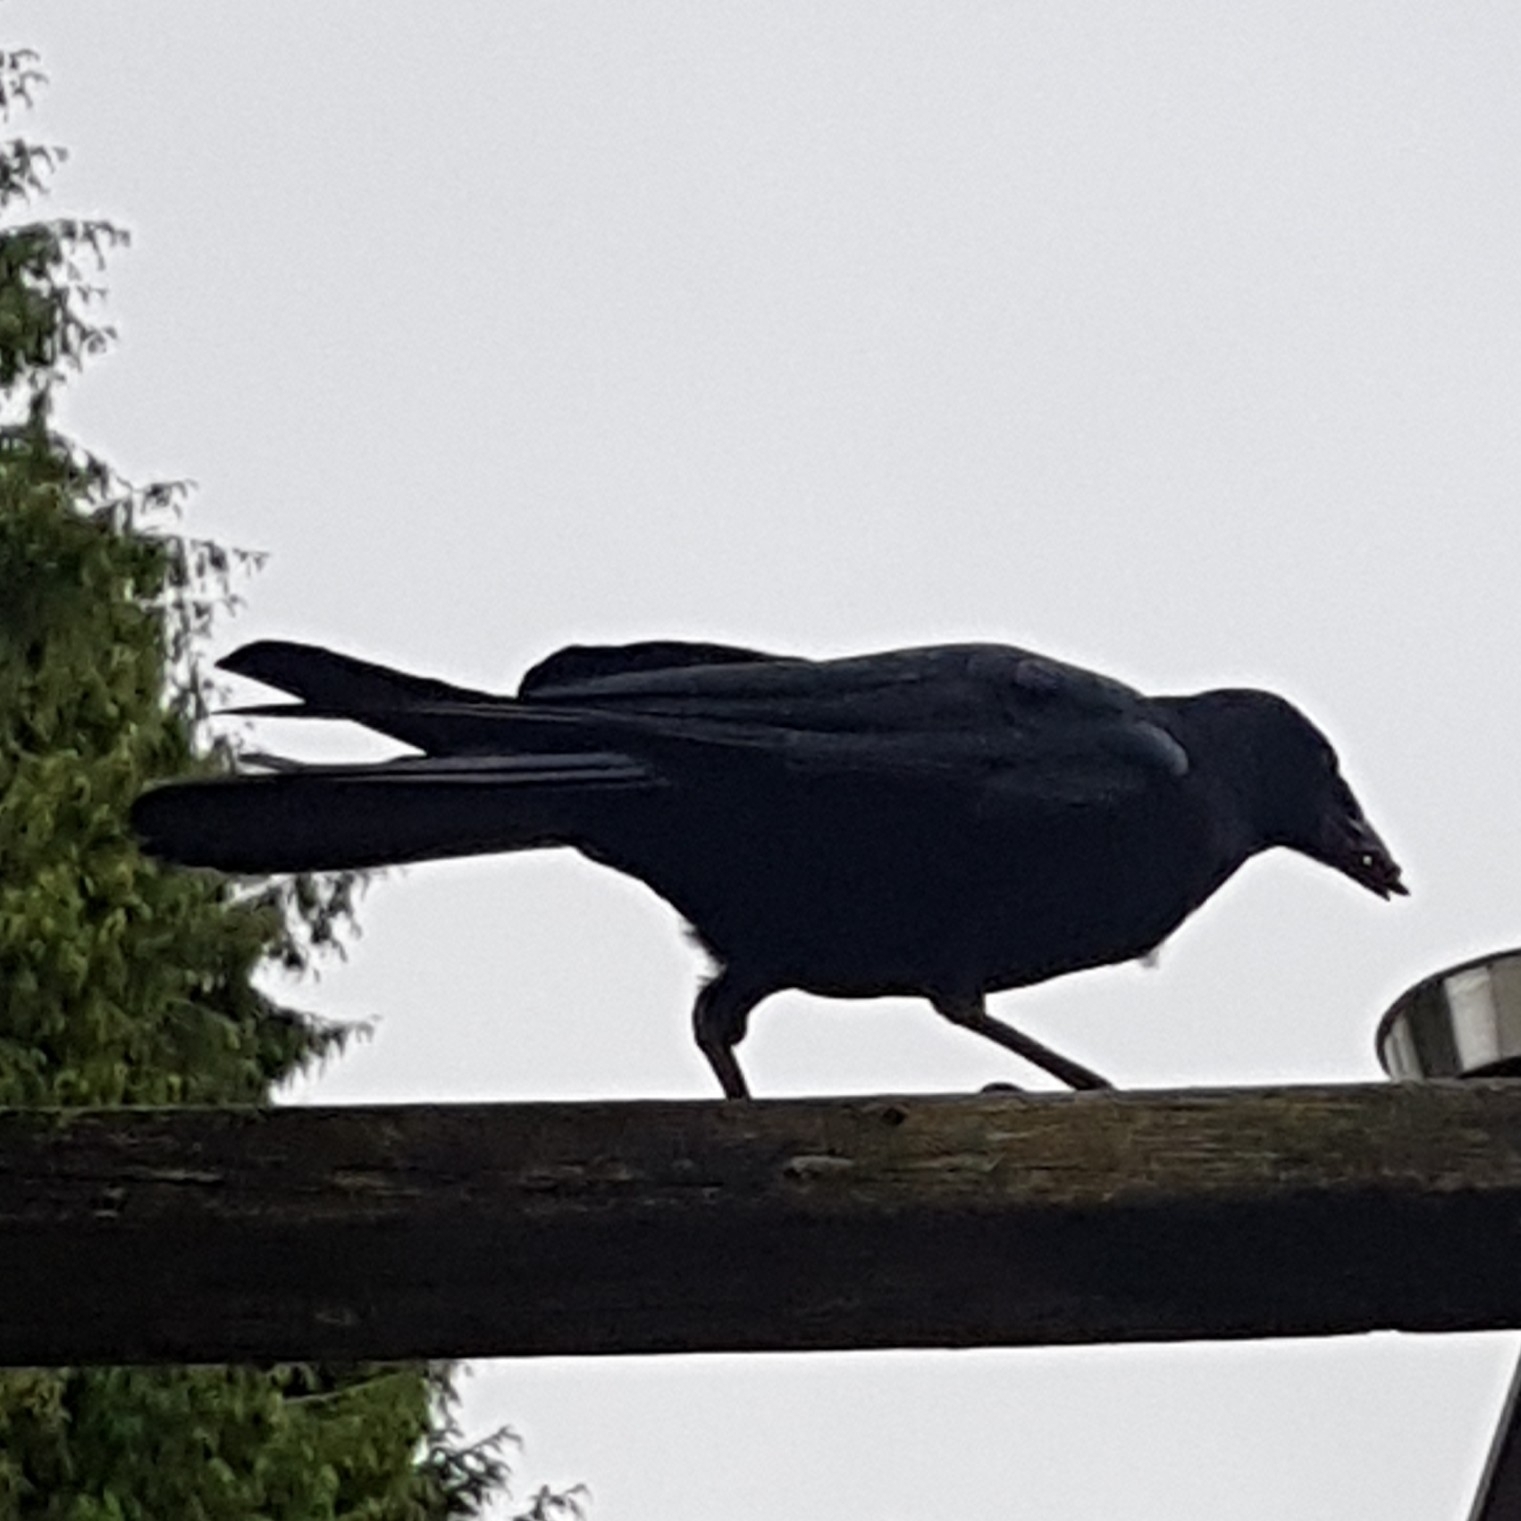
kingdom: Animalia
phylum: Chordata
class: Aves
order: Passeriformes
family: Corvidae
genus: Corvus
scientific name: Corvus brachyrhynchos
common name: American crow
